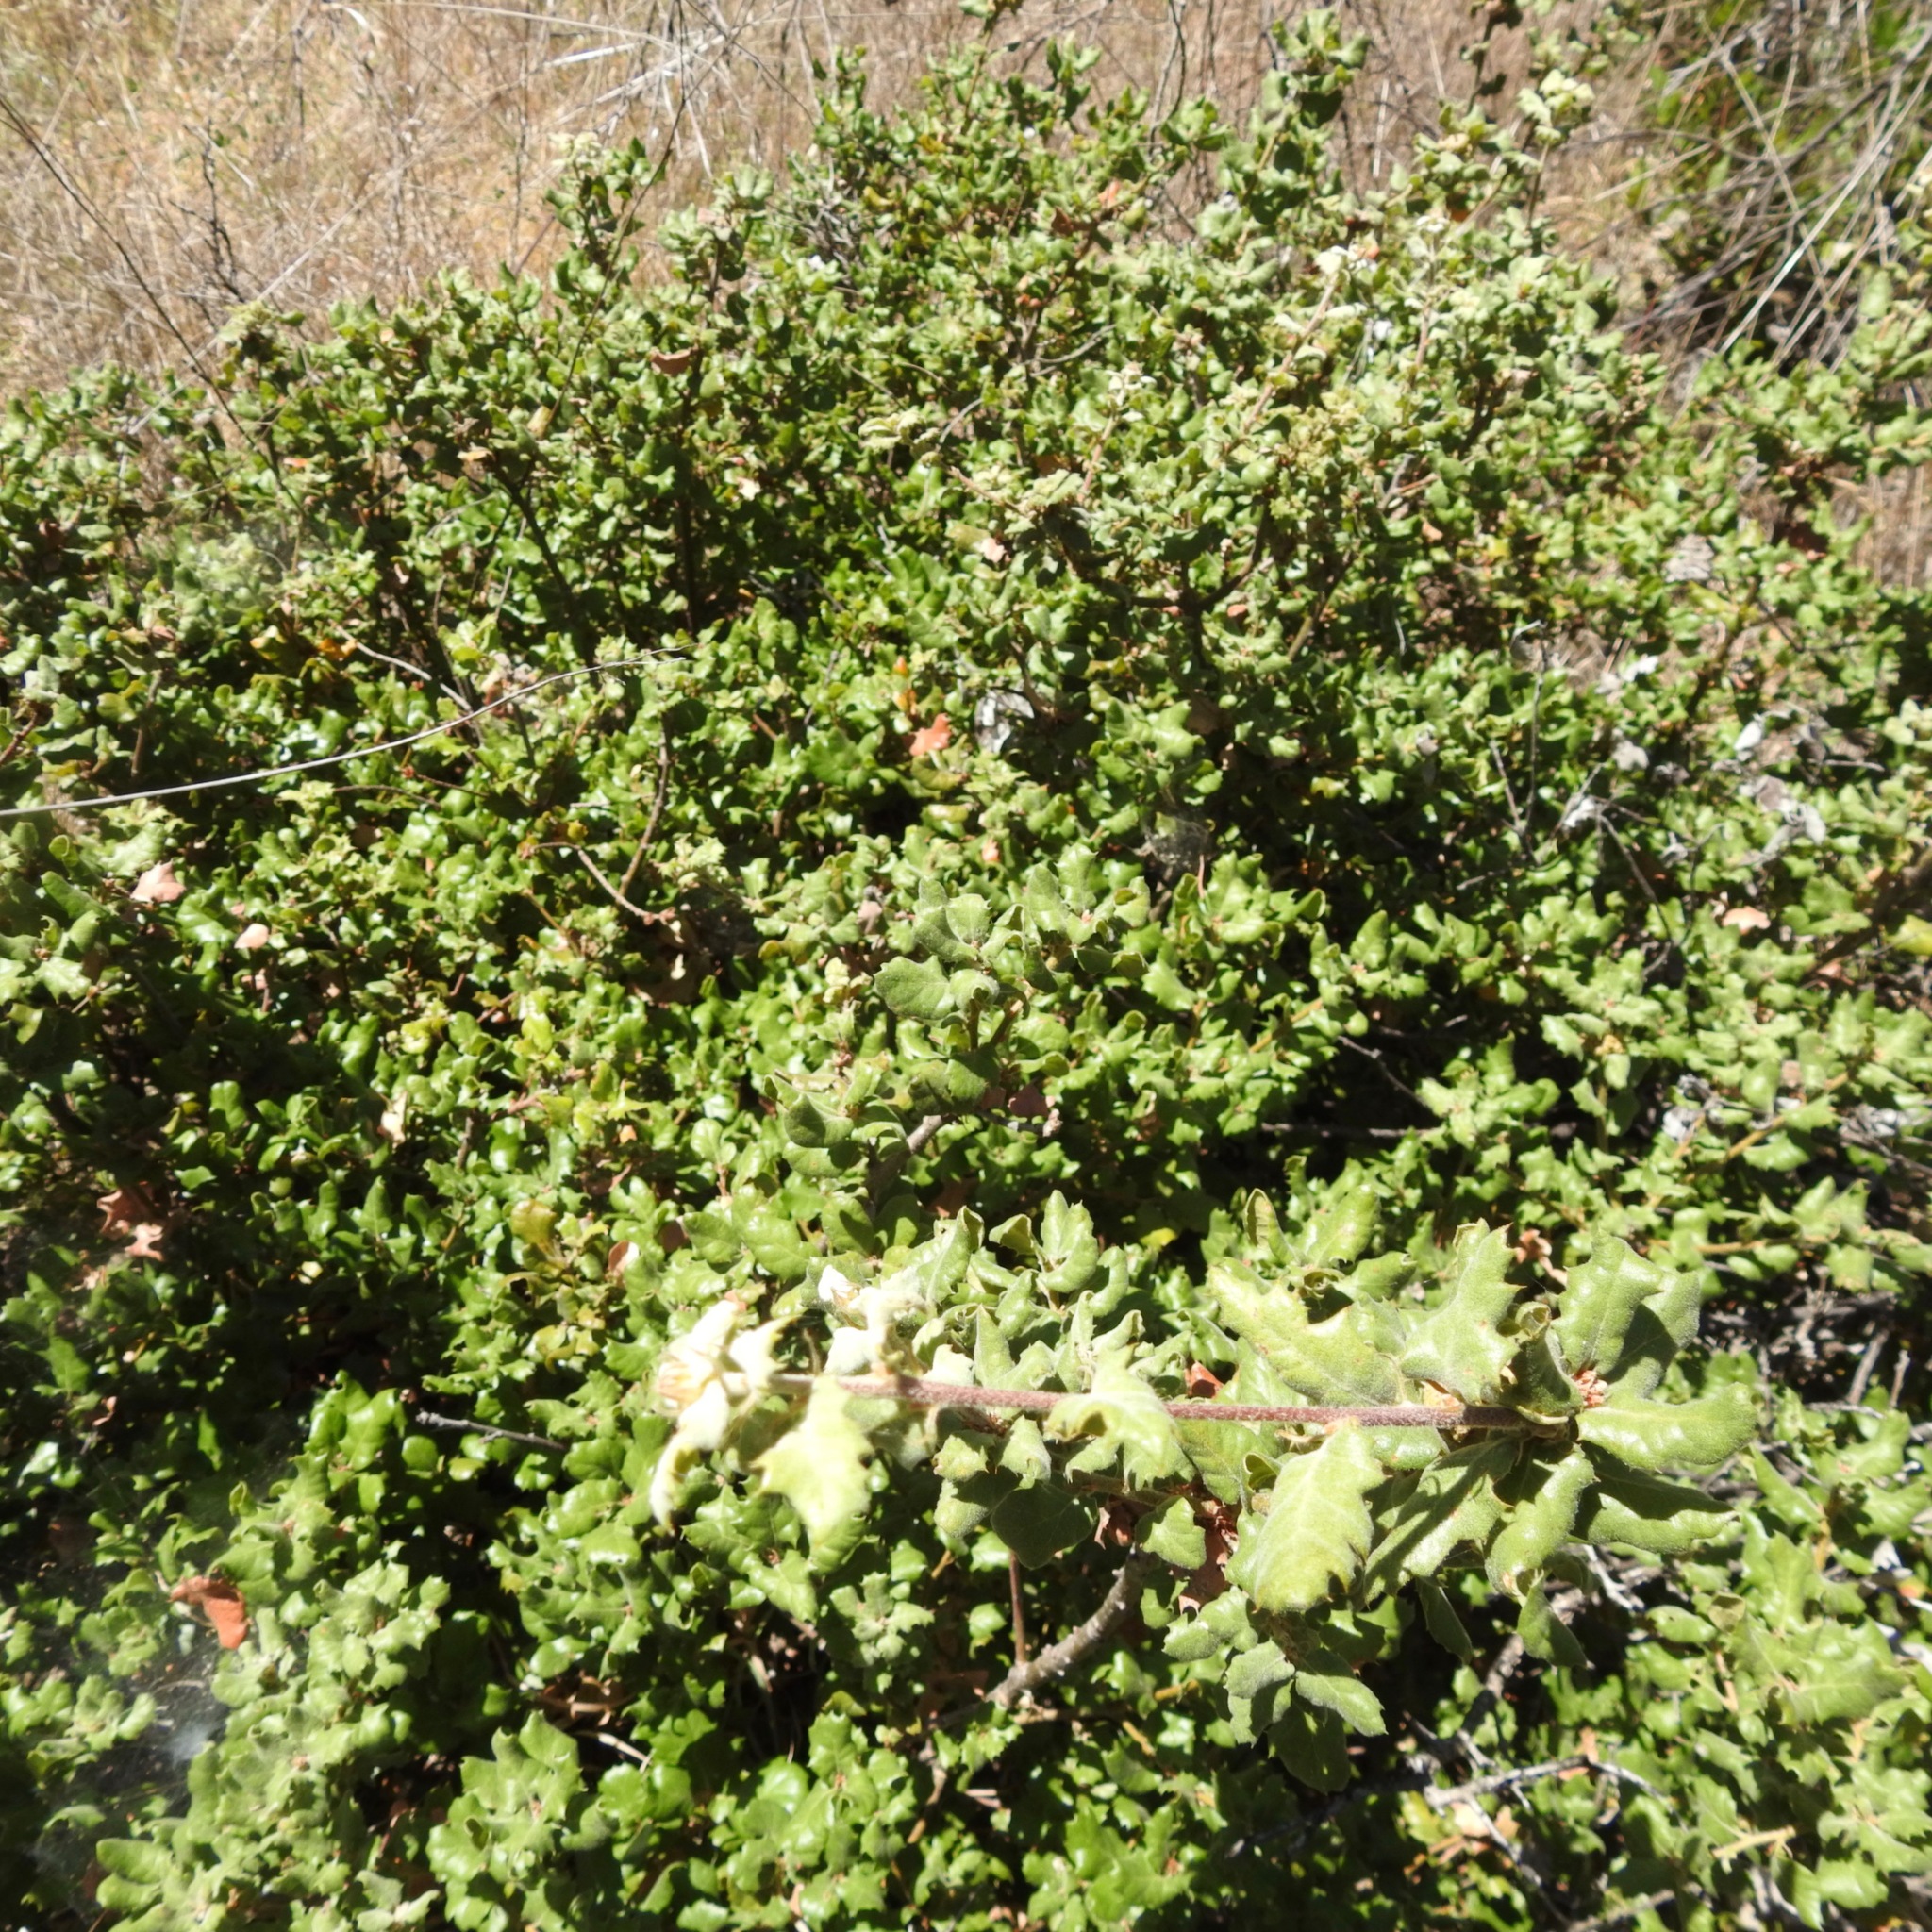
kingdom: Plantae
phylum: Tracheophyta
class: Magnoliopsida
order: Fagales
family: Fagaceae
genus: Quercus
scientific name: Quercus berberidifolia
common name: California scrub oak
